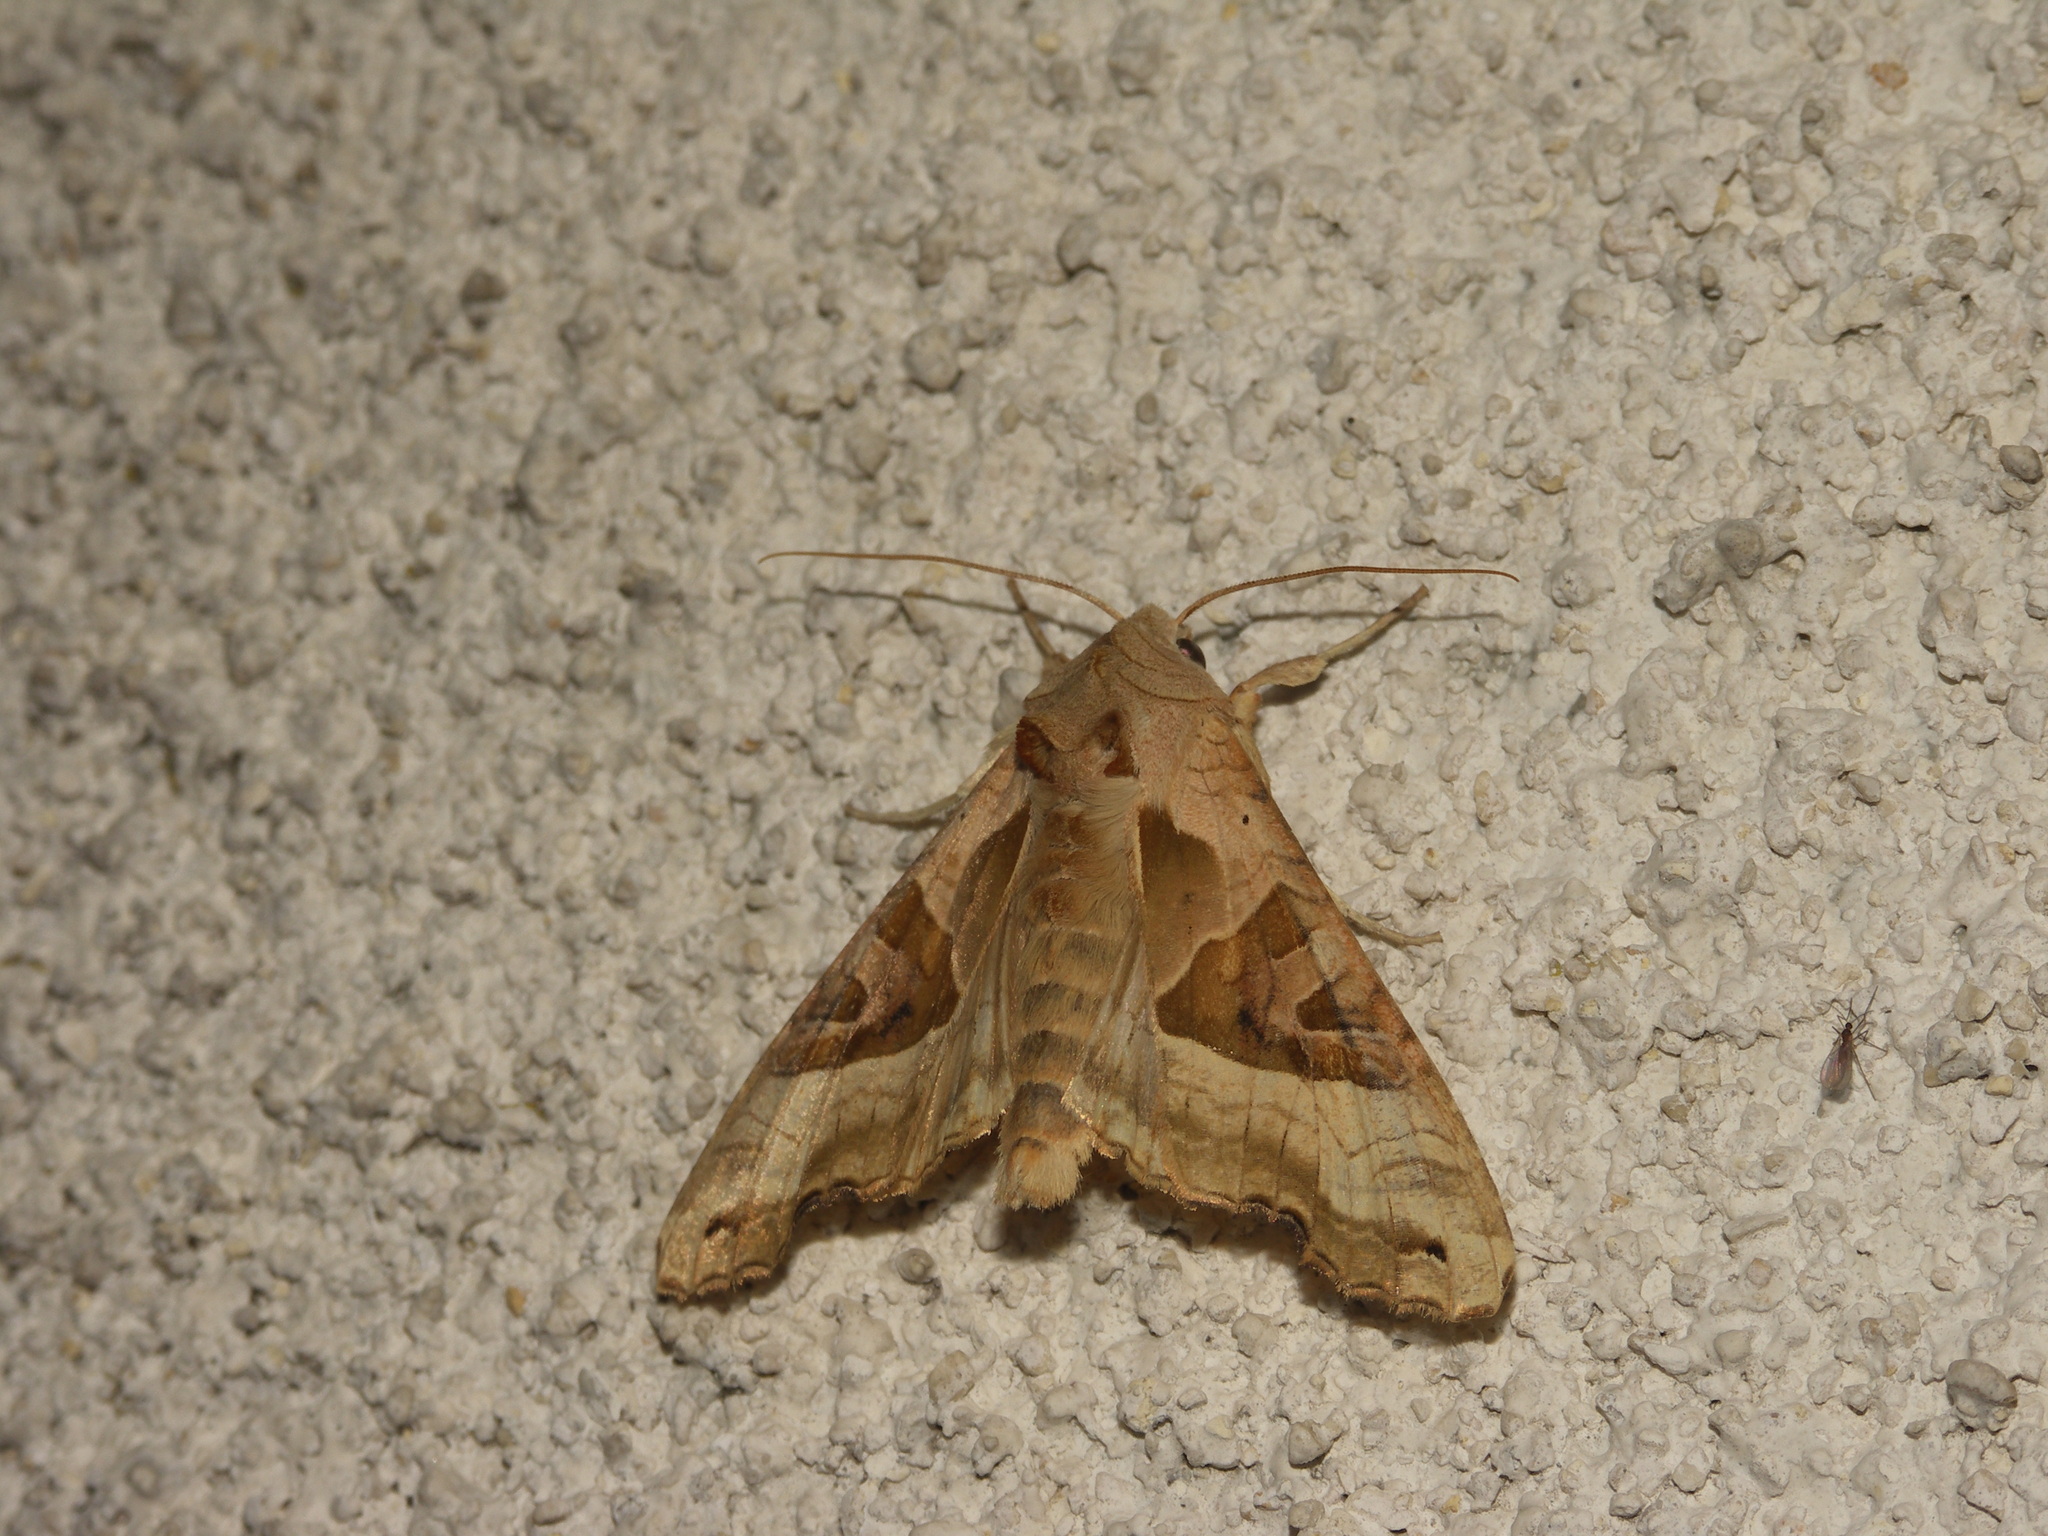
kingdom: Animalia
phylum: Arthropoda
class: Insecta
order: Lepidoptera
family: Noctuidae
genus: Phlogophora
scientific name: Phlogophora meticulosa
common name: Angle shades
